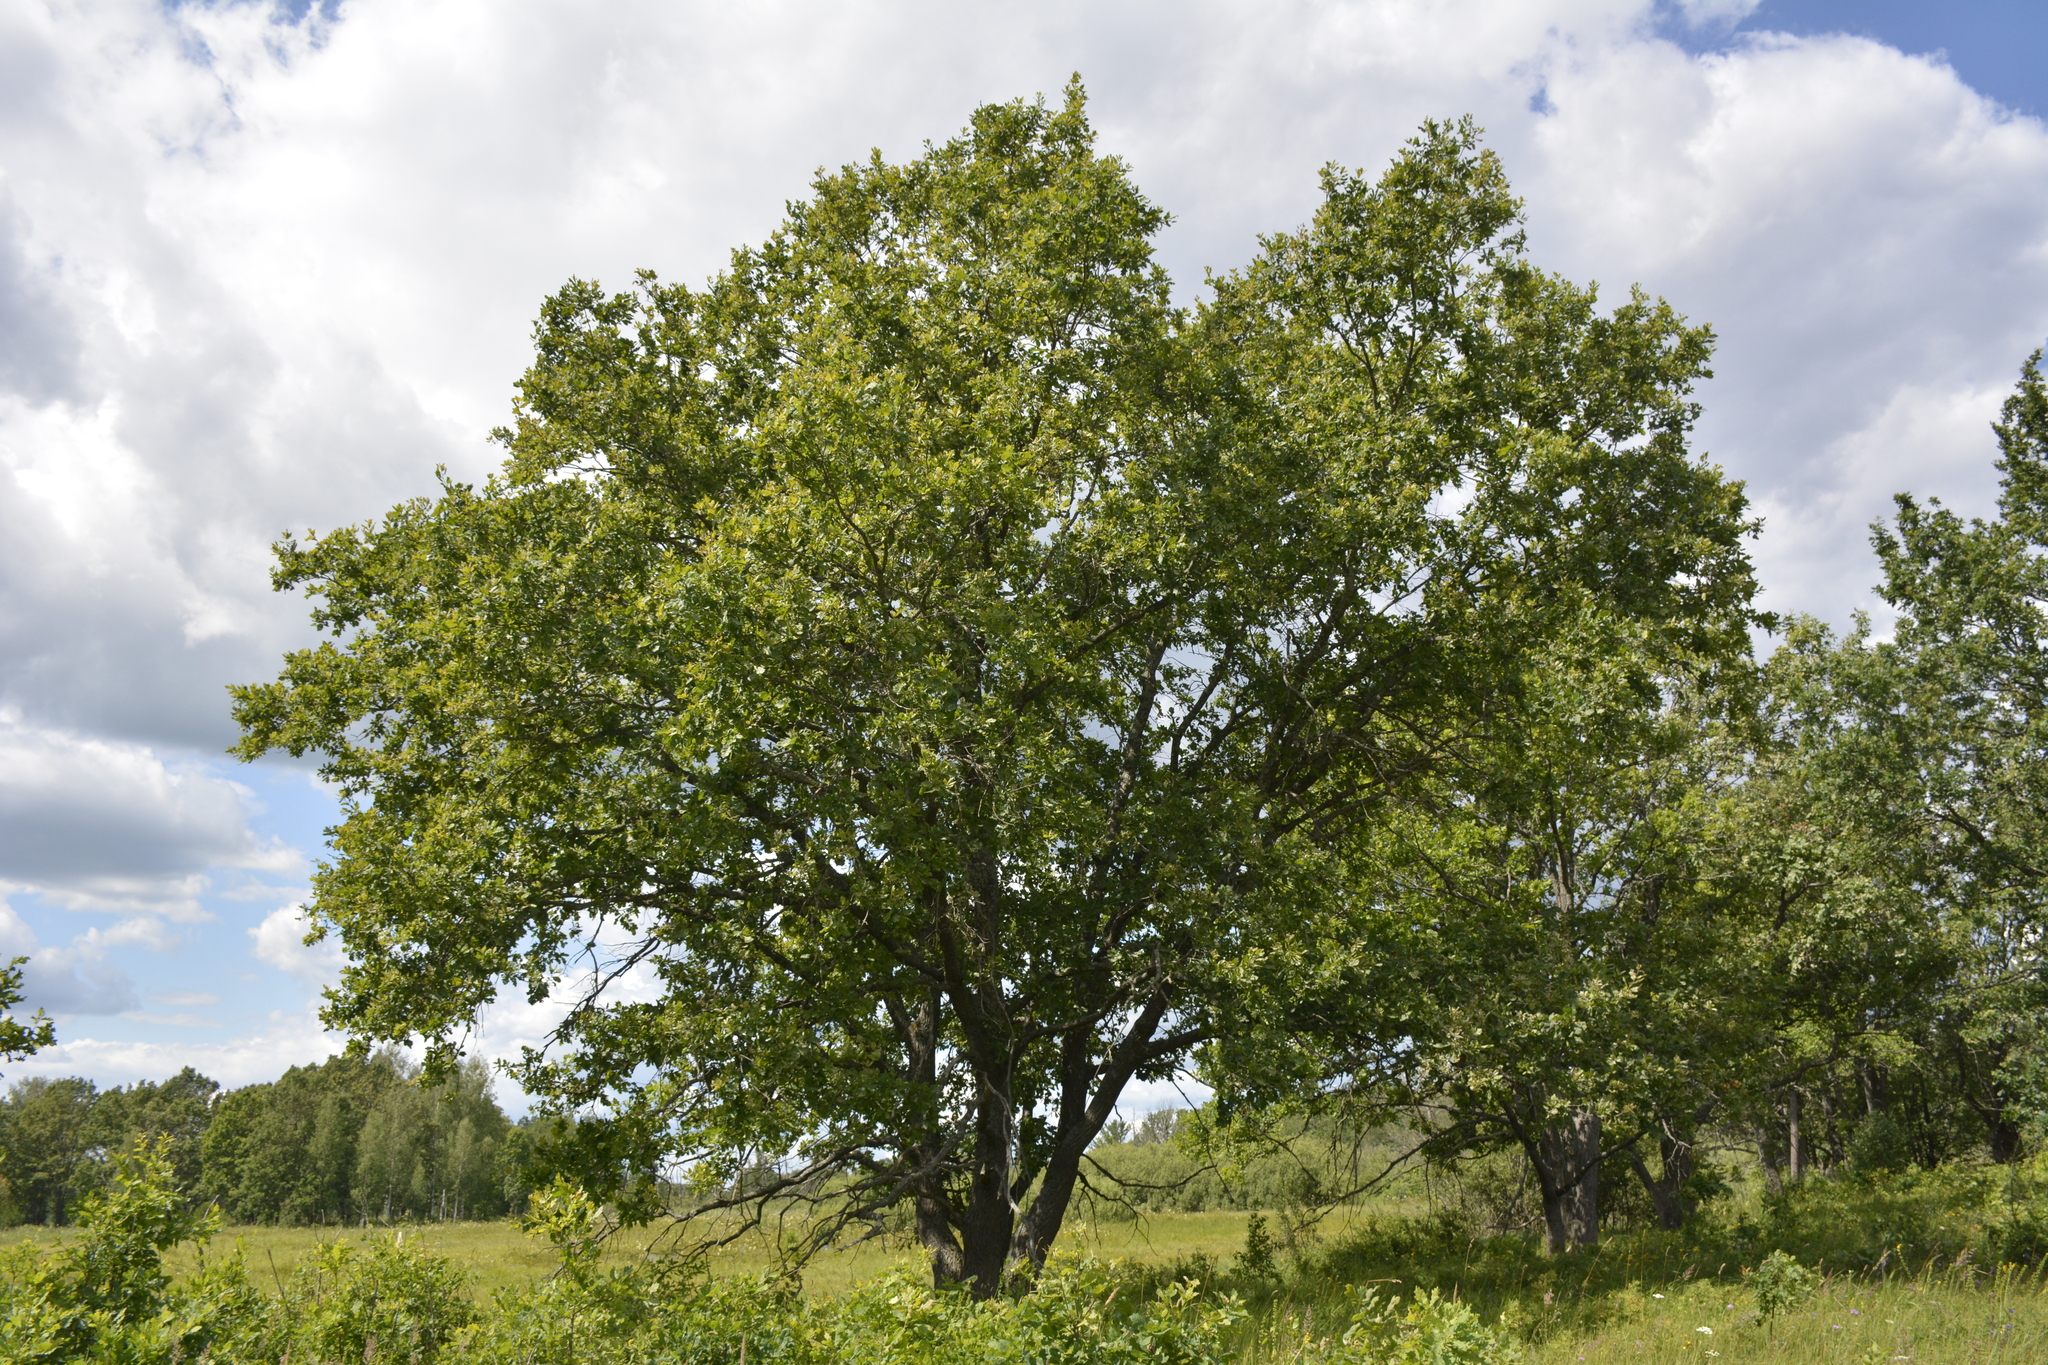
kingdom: Plantae
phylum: Tracheophyta
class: Magnoliopsida
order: Fagales
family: Fagaceae
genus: Quercus
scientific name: Quercus robur
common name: Pedunculate oak
